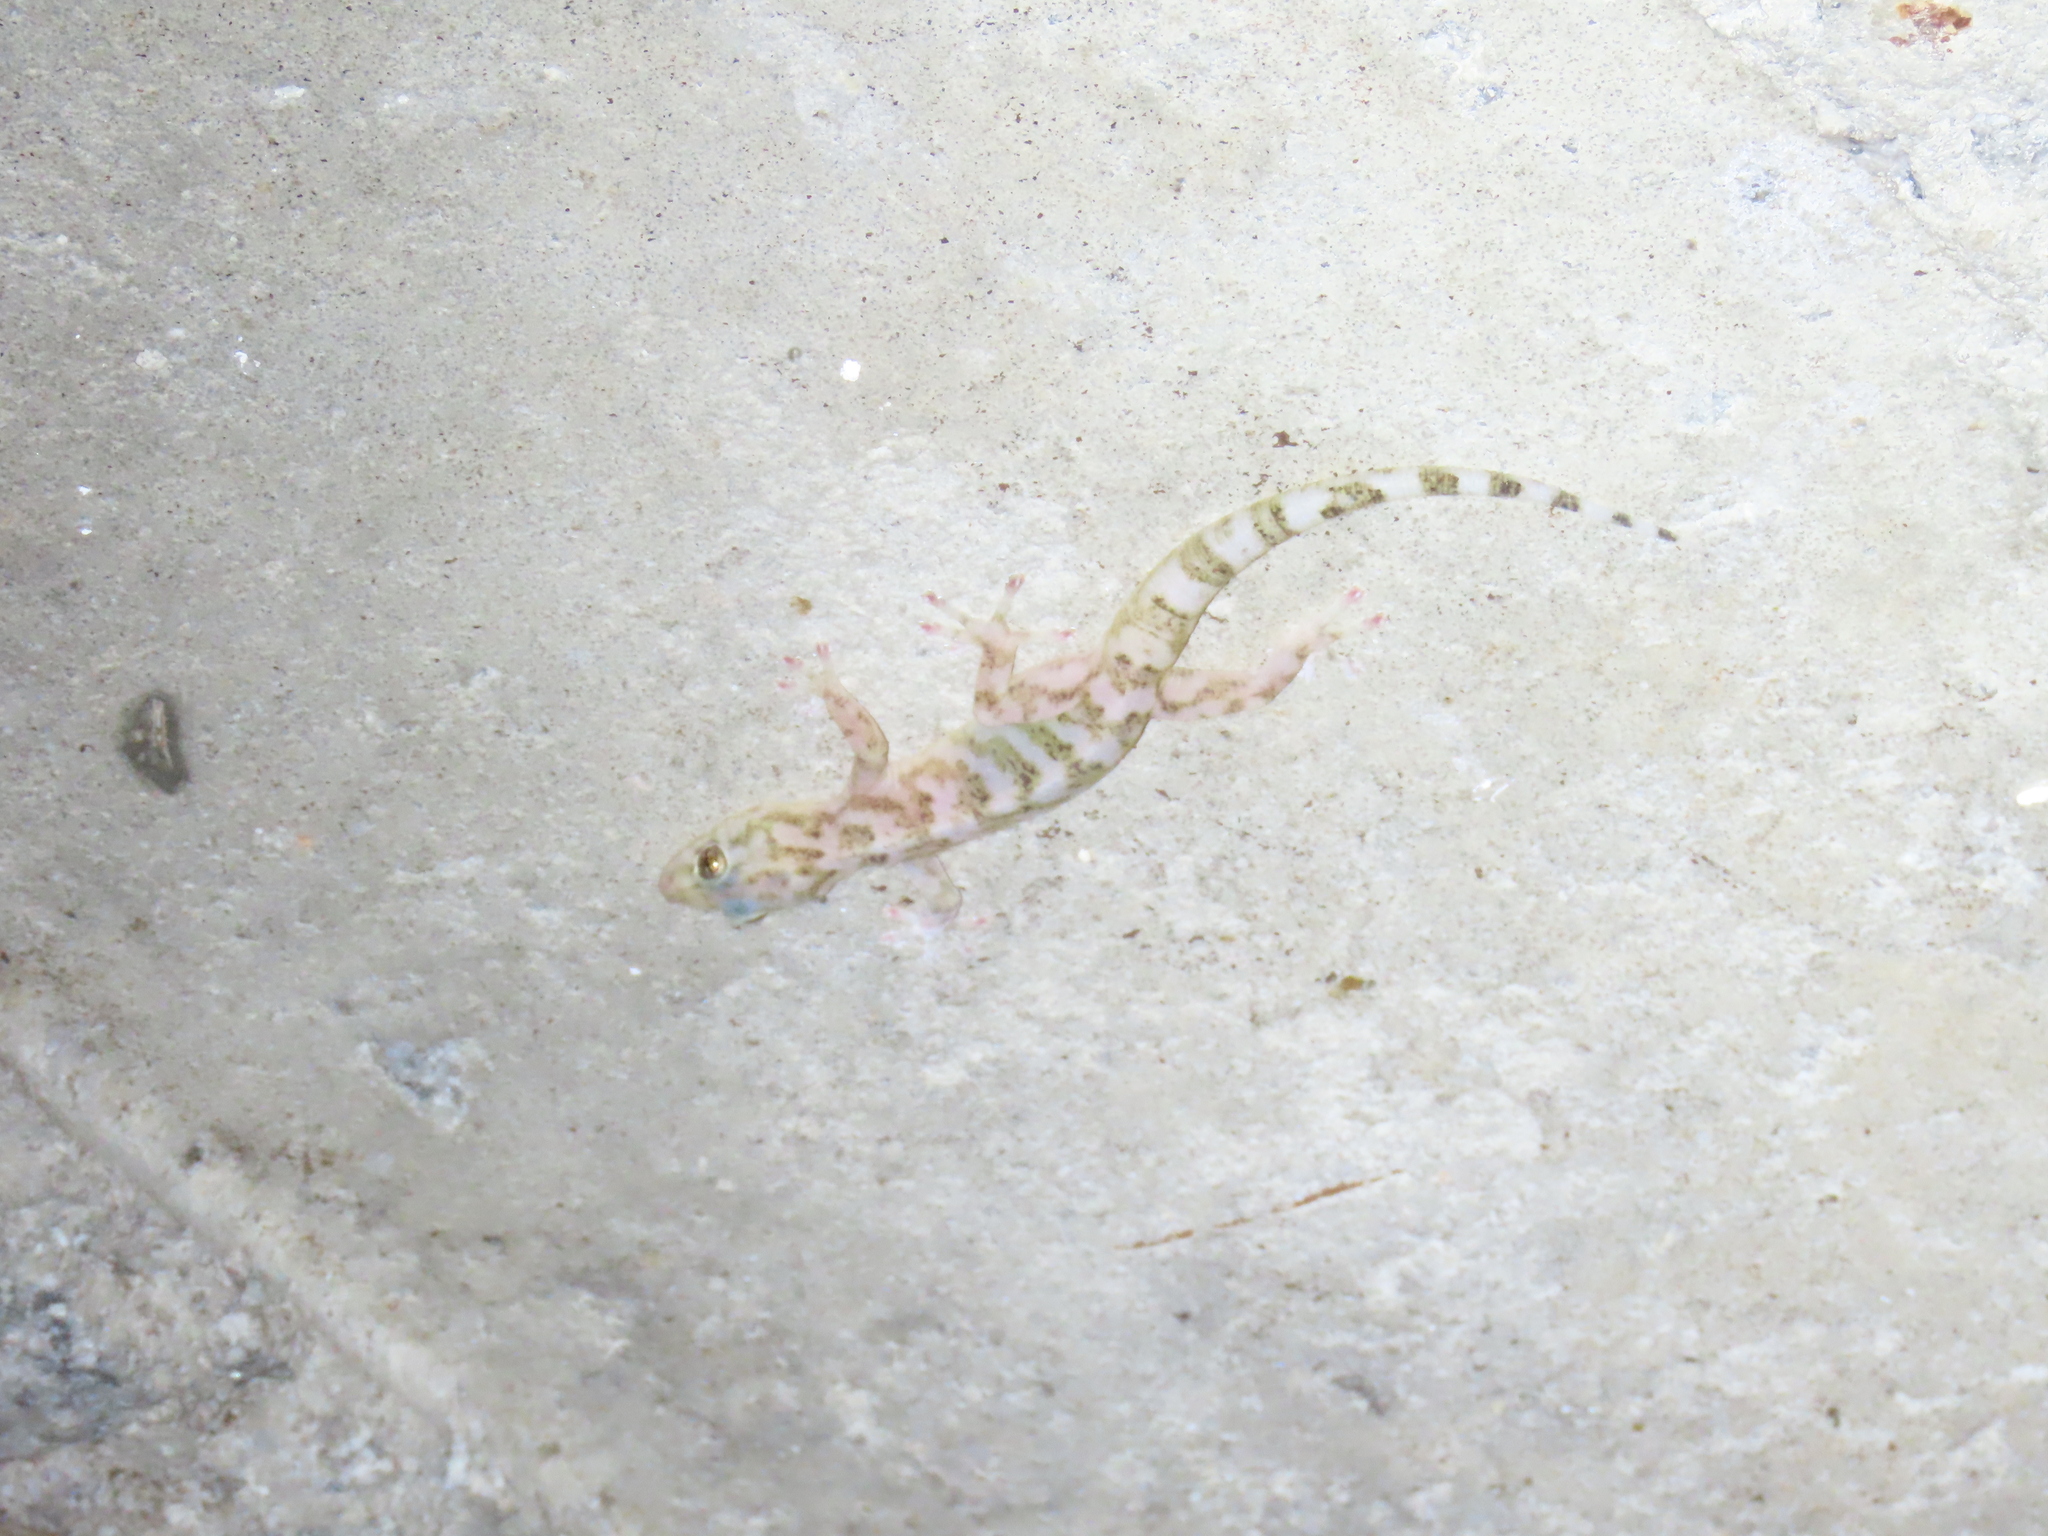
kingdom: Animalia
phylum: Chordata
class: Squamata
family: Gekkonidae
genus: Afroedura
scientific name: Afroedura rupestris
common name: Abel erasmus flat gecko
